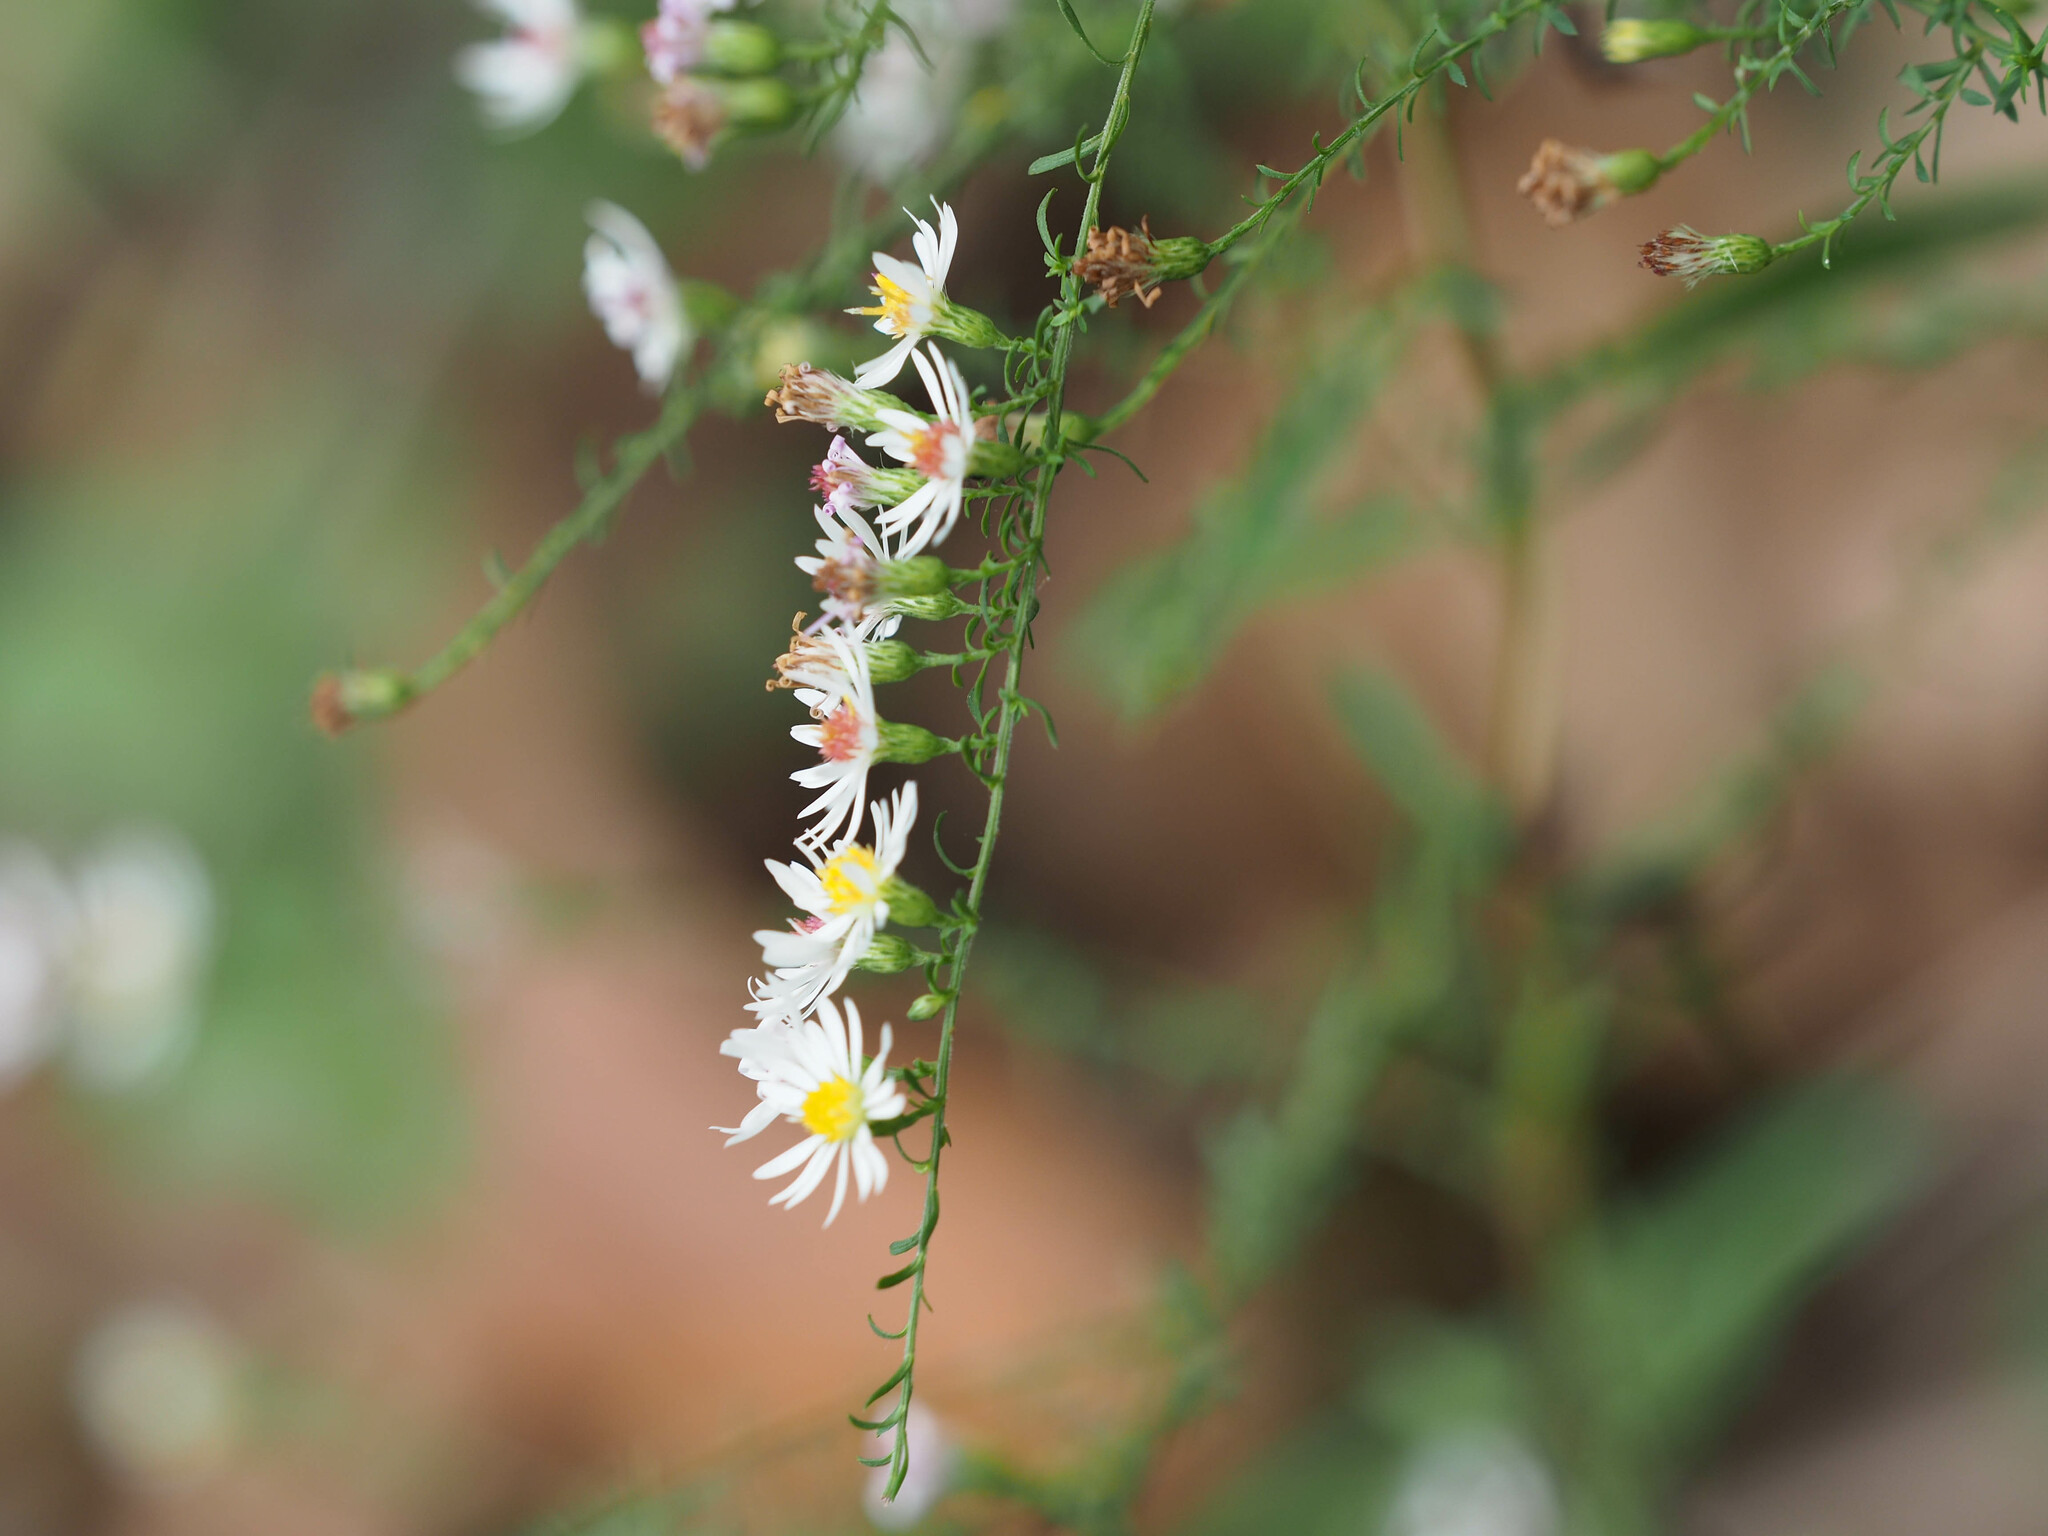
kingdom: Plantae
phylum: Tracheophyta
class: Magnoliopsida
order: Asterales
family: Asteraceae
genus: Symphyotrichum
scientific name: Symphyotrichum racemosum
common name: Small white aster
